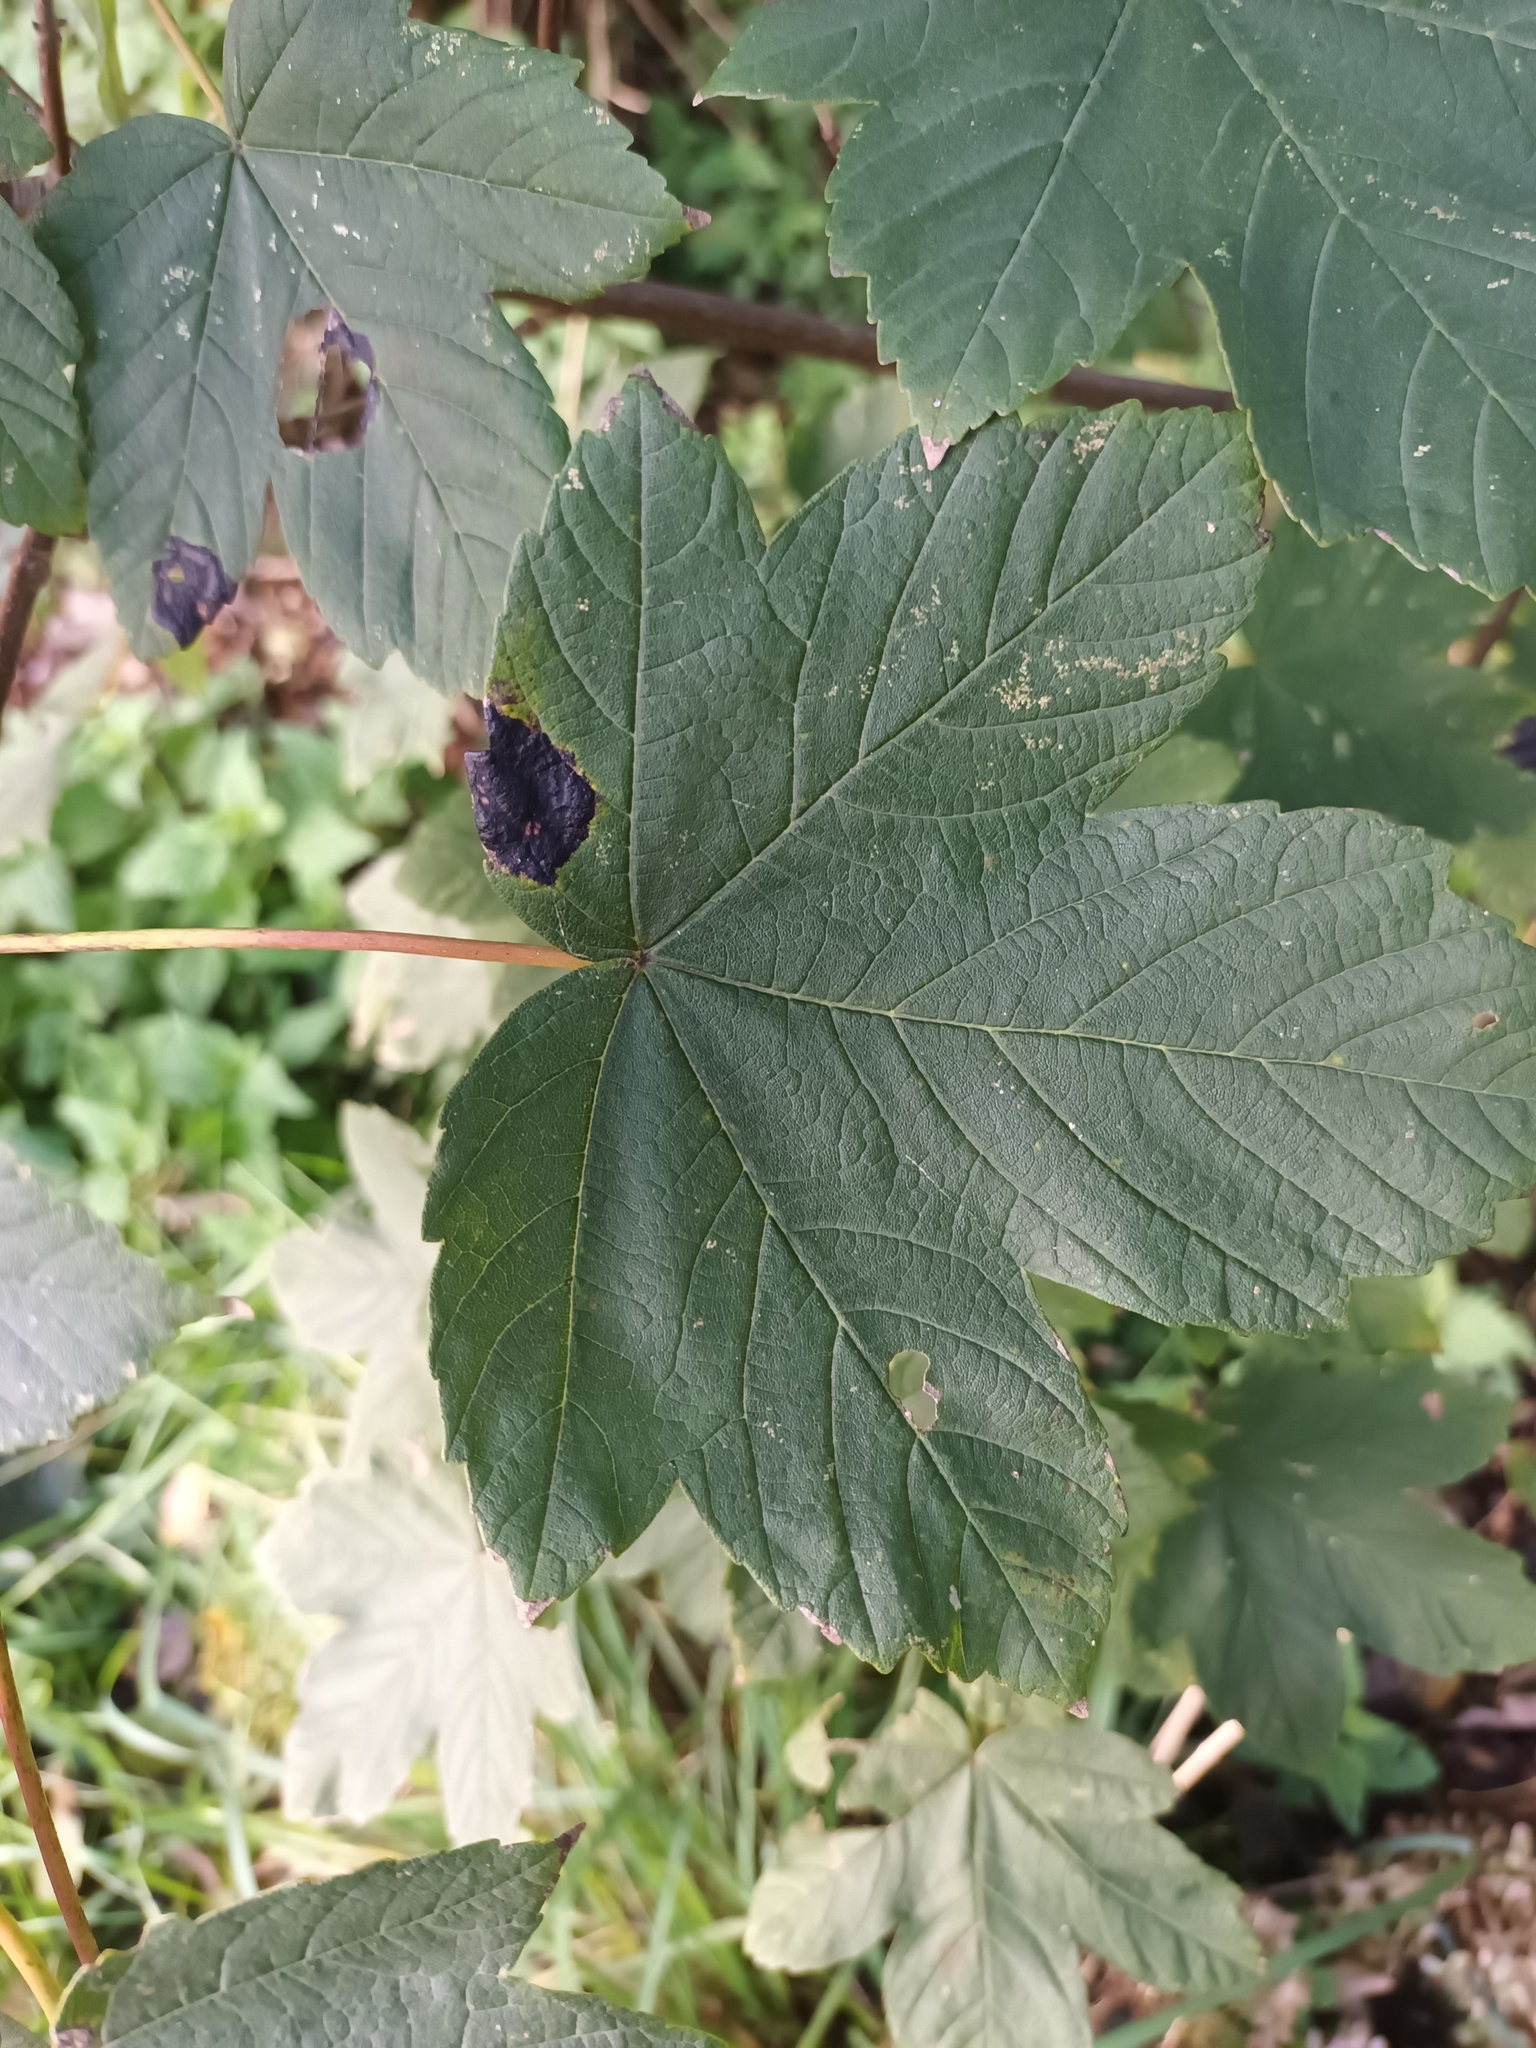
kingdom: Fungi
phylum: Ascomycota
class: Leotiomycetes
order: Rhytismatales
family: Rhytismataceae
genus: Rhytisma
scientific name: Rhytisma acerinum
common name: European tar spot
